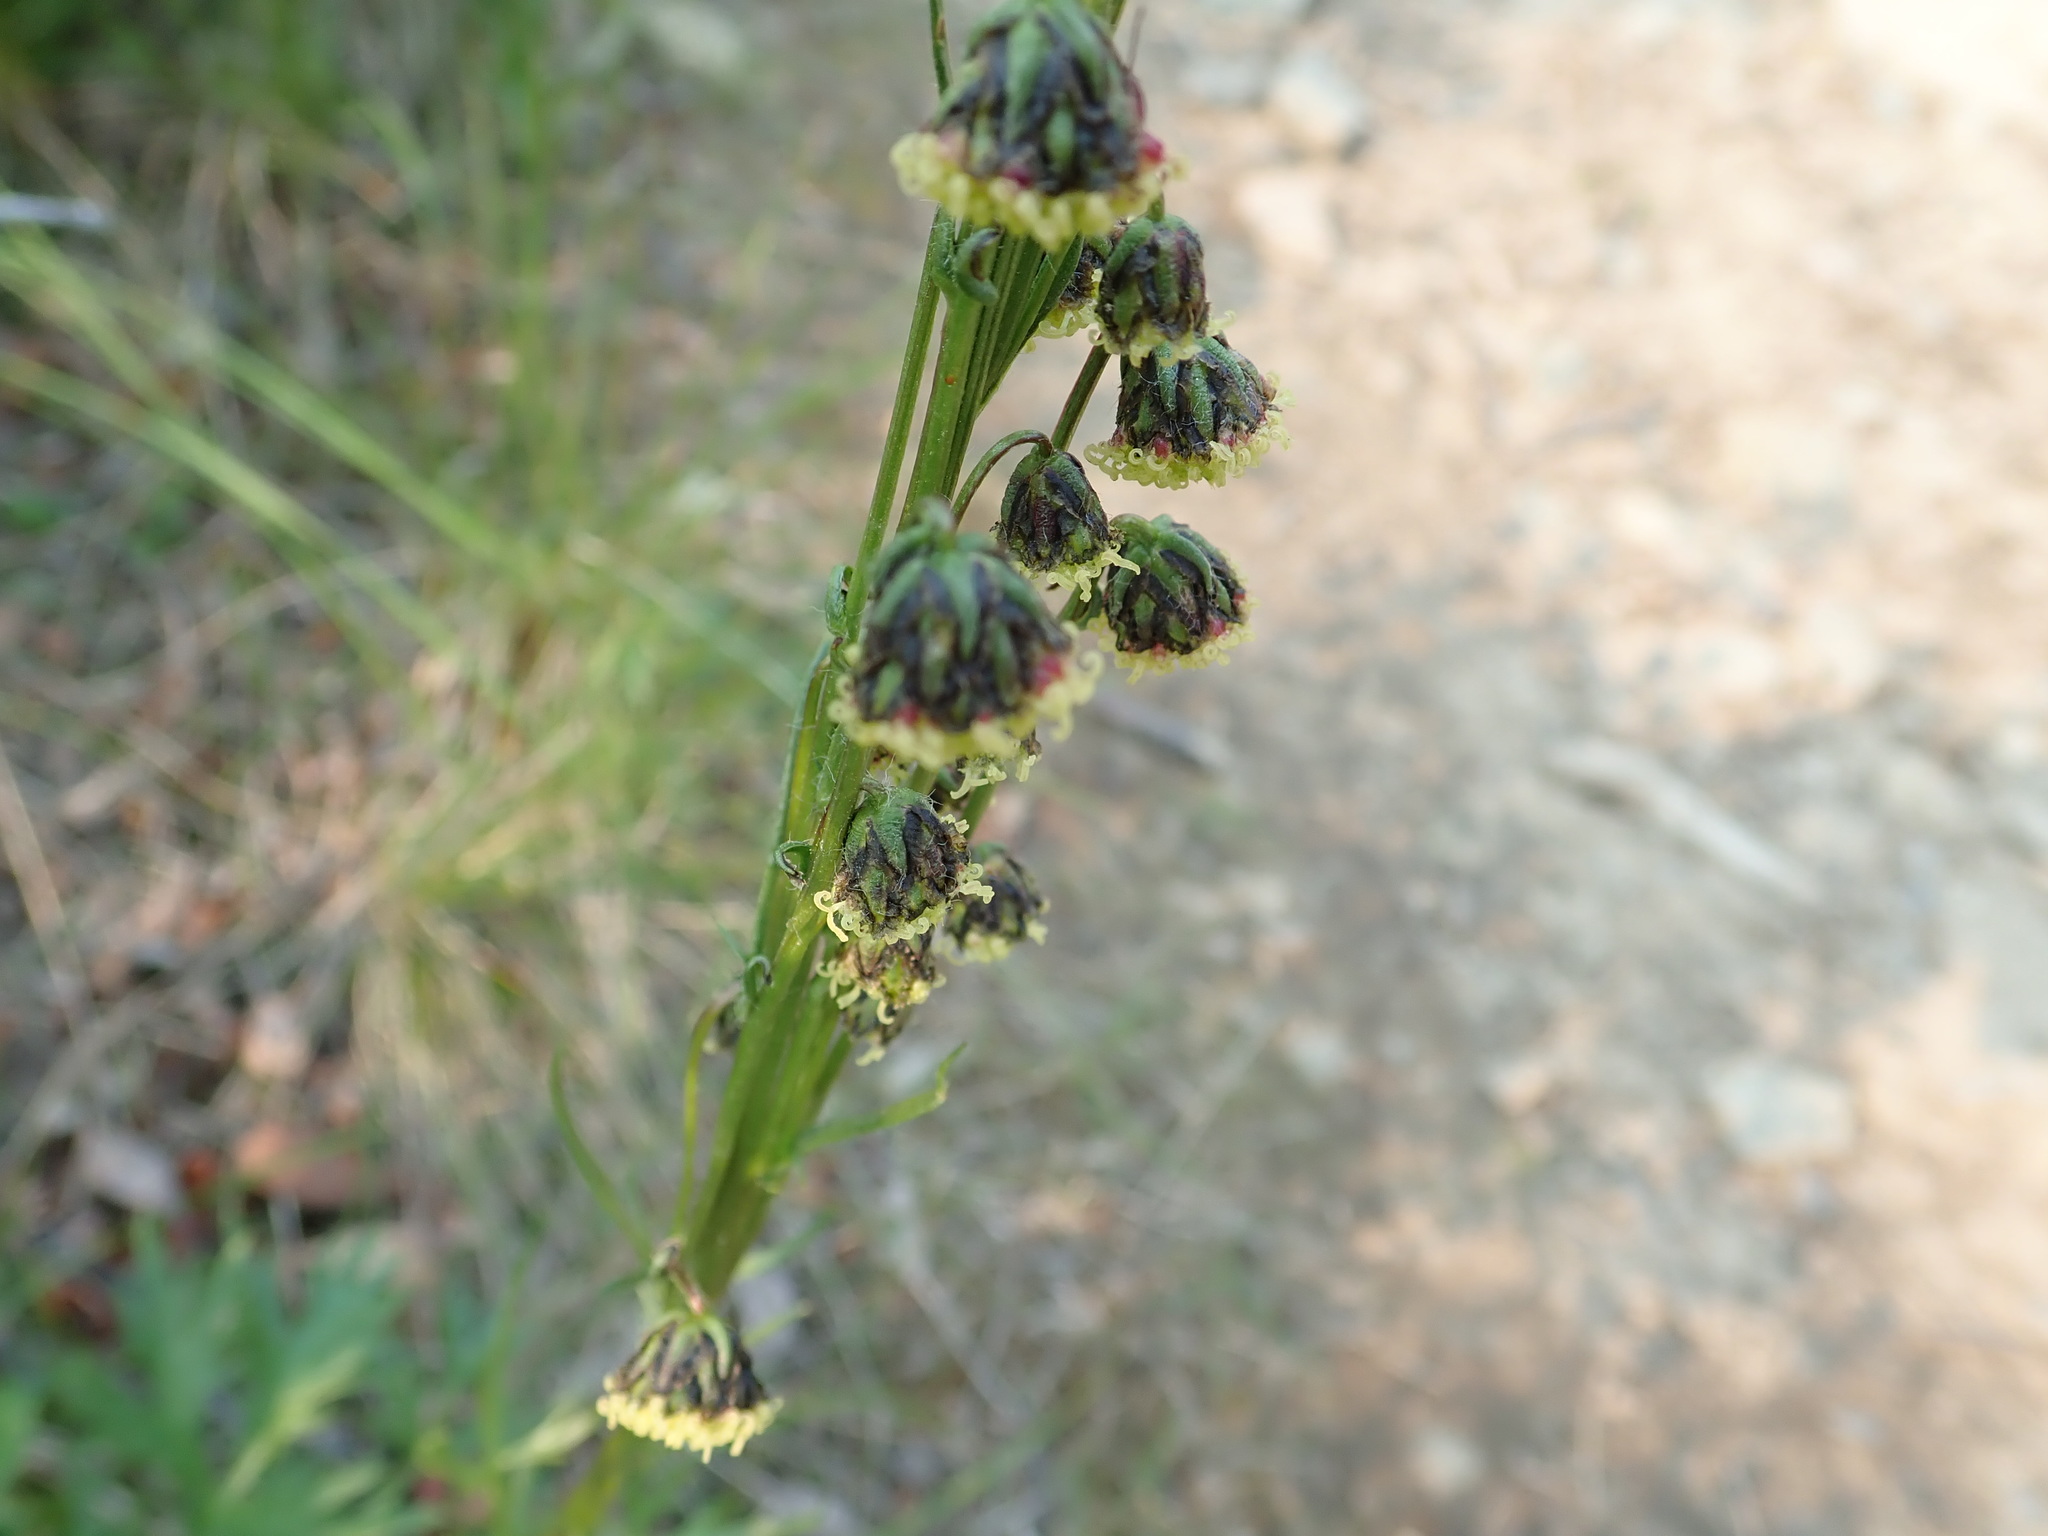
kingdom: Plantae
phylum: Tracheophyta
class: Magnoliopsida
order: Asterales
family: Asteraceae
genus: Artemisia
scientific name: Artemisia norvegica
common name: Norwegian mugwort
